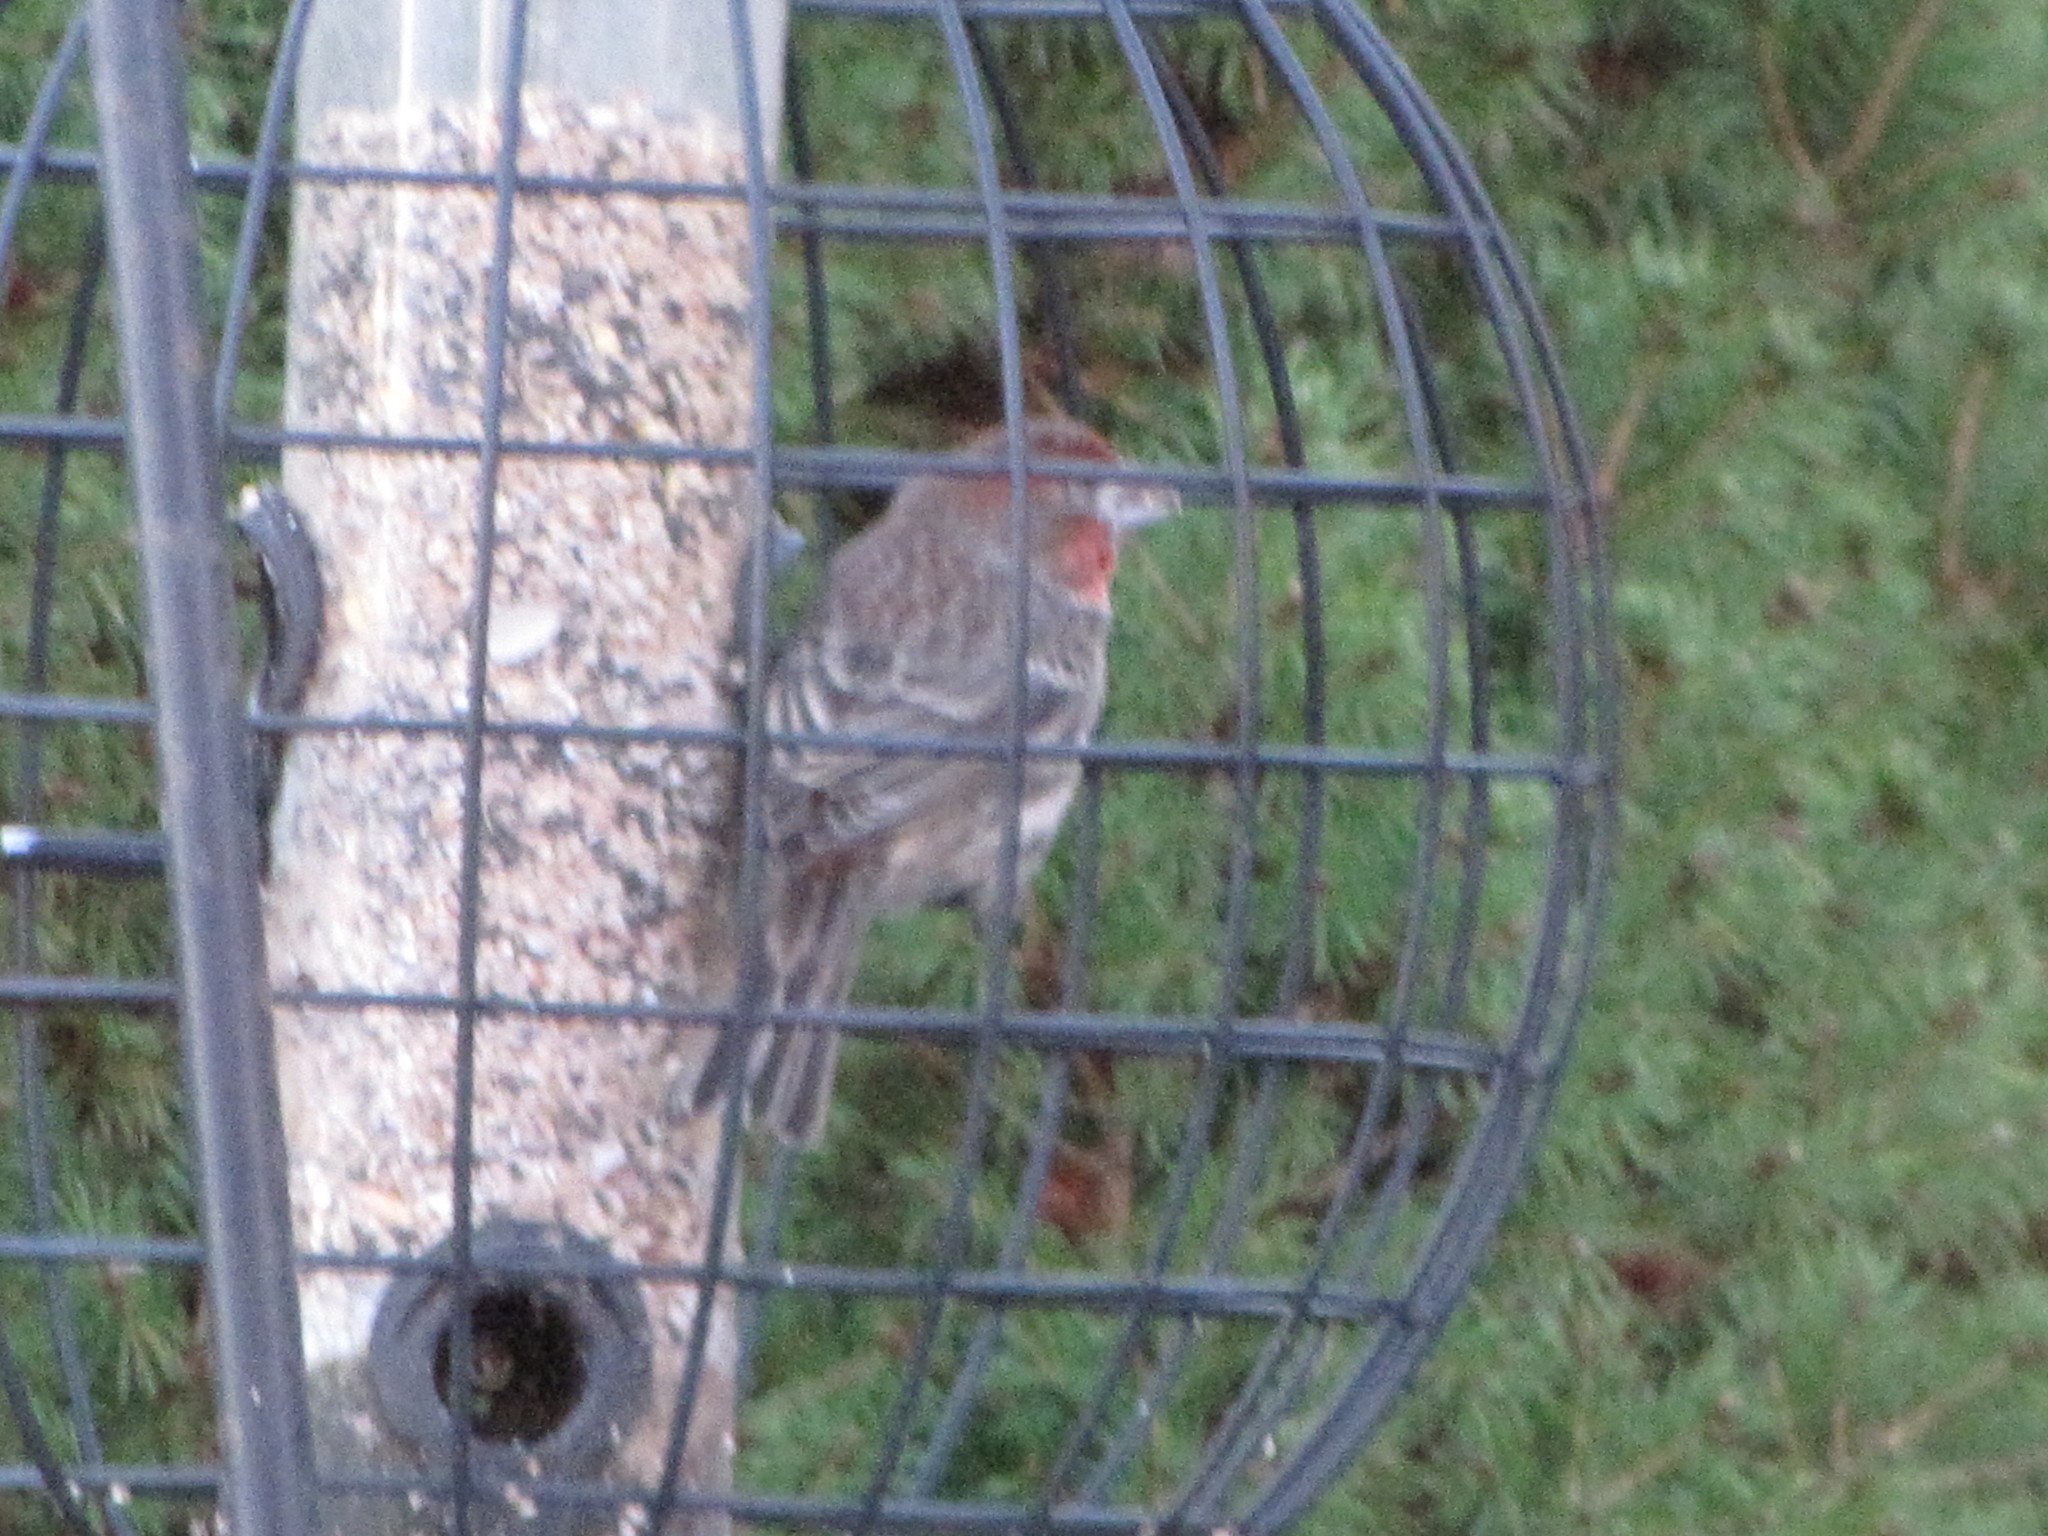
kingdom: Animalia
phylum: Chordata
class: Aves
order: Passeriformes
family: Fringillidae
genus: Haemorhous
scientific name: Haemorhous mexicanus
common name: House finch
